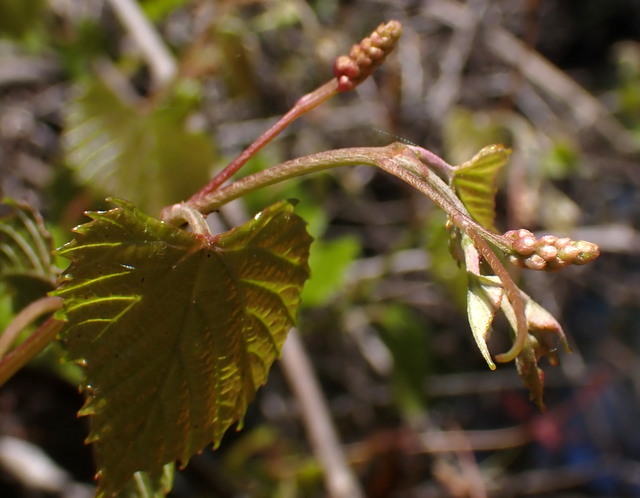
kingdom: Plantae
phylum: Tracheophyta
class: Magnoliopsida
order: Vitales
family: Vitaceae
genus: Vitis
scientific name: Vitis rotundifolia
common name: Muscadine grape
